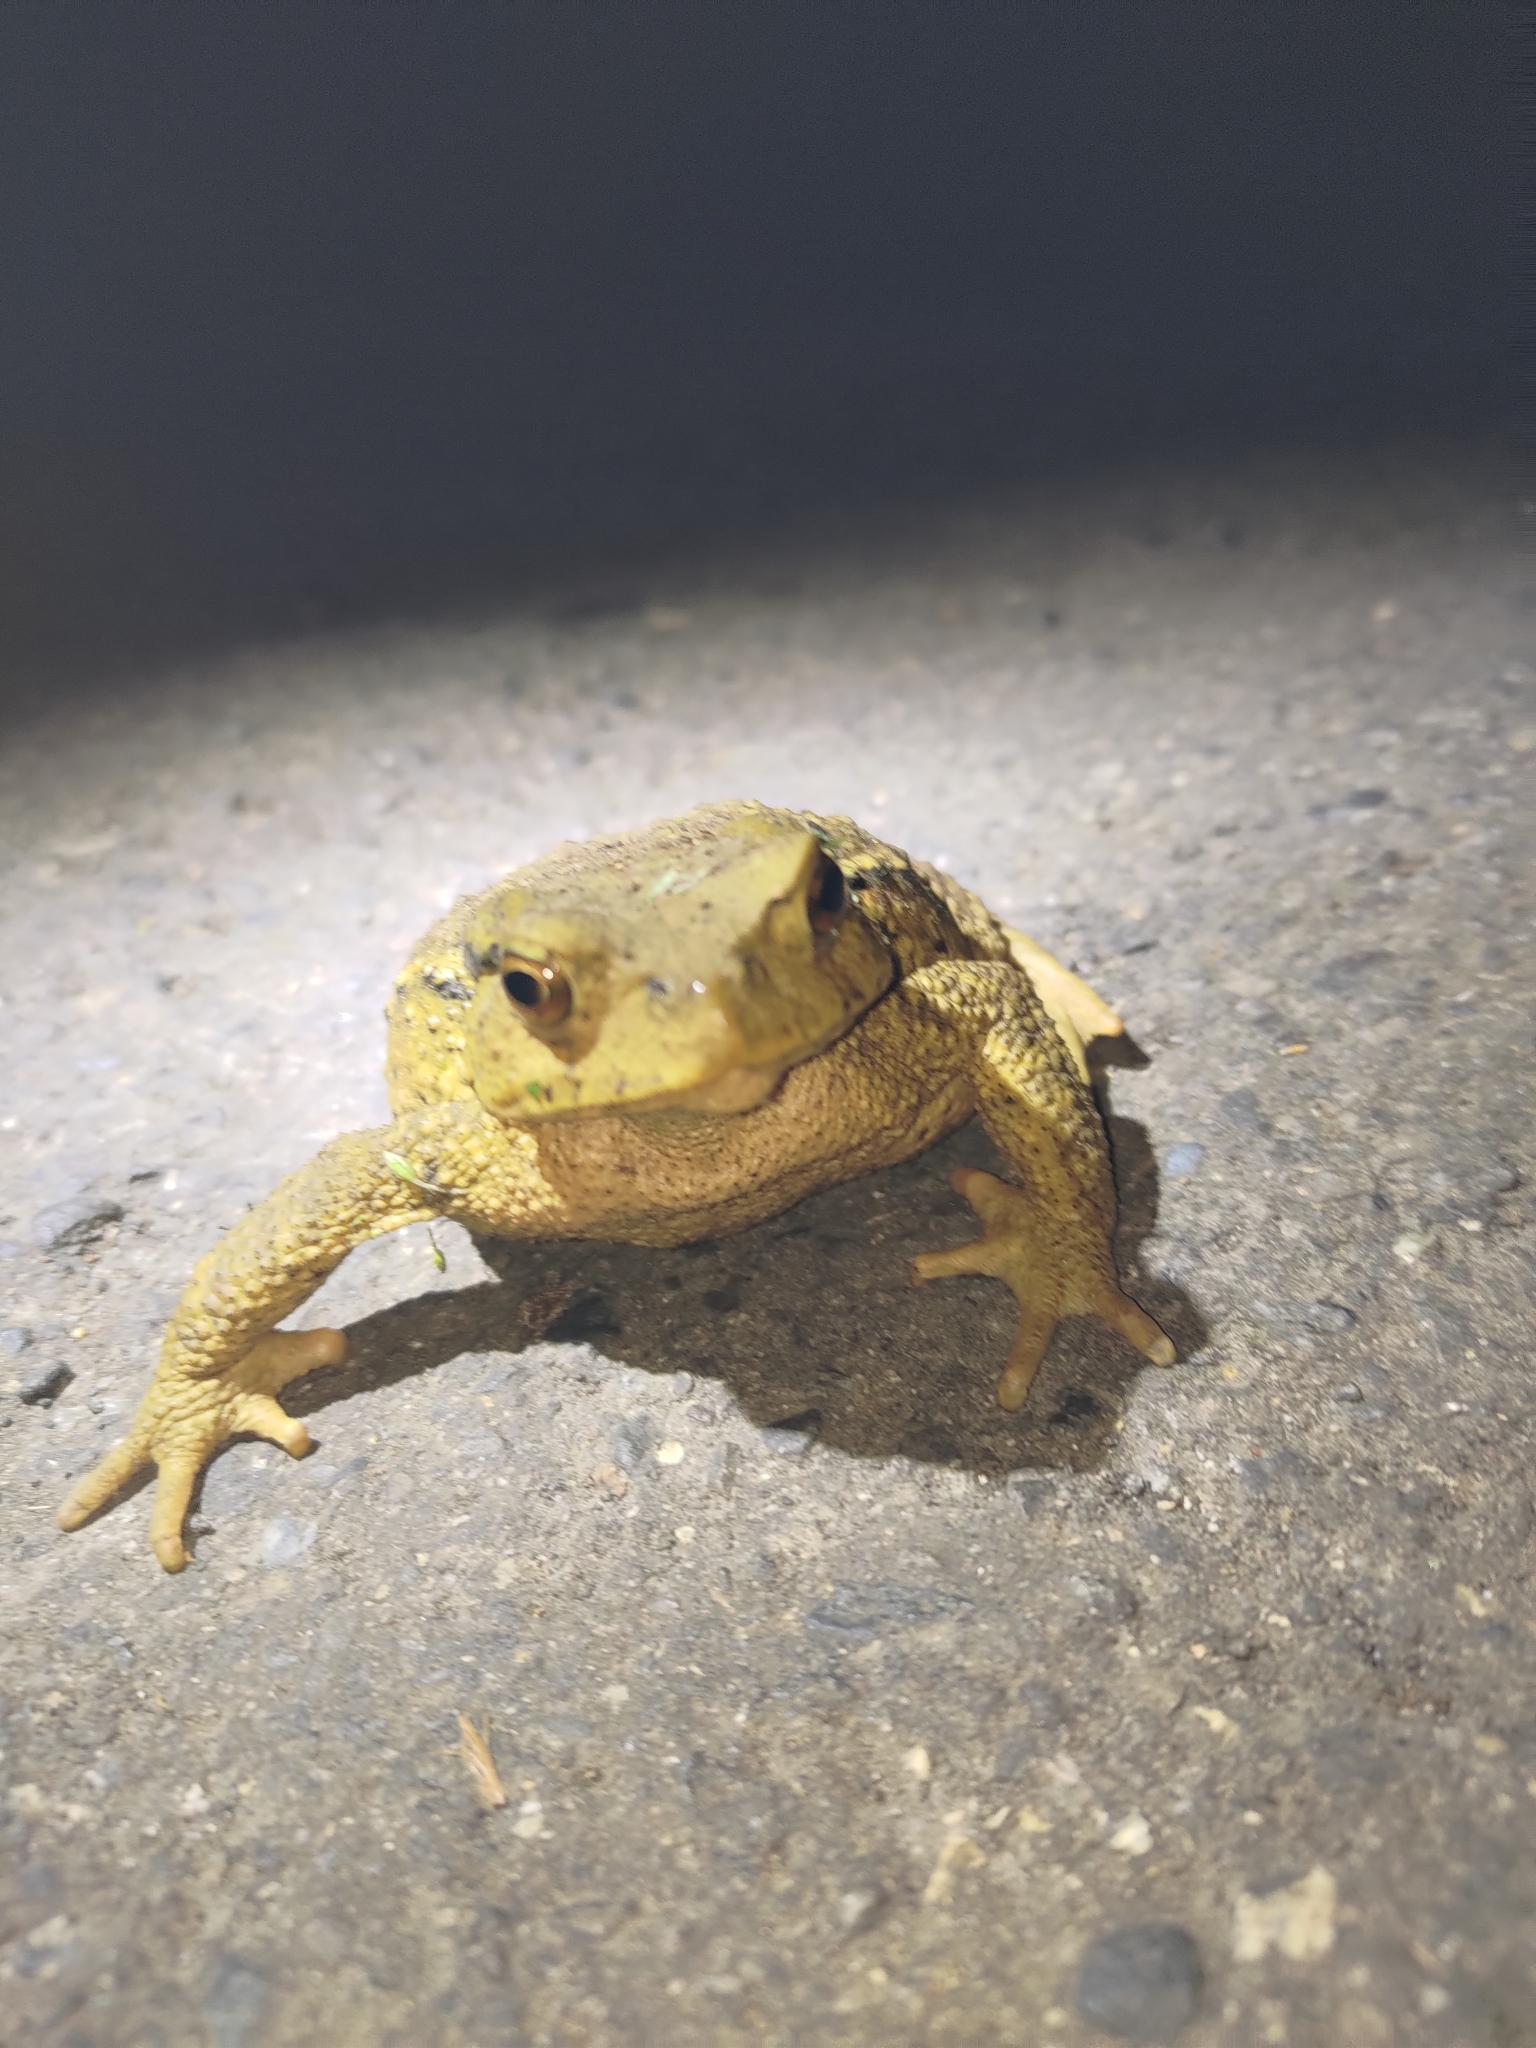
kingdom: Animalia
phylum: Chordata
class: Amphibia
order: Anura
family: Bufonidae
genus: Bufo
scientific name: Bufo bankorensis
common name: Bankor toad
